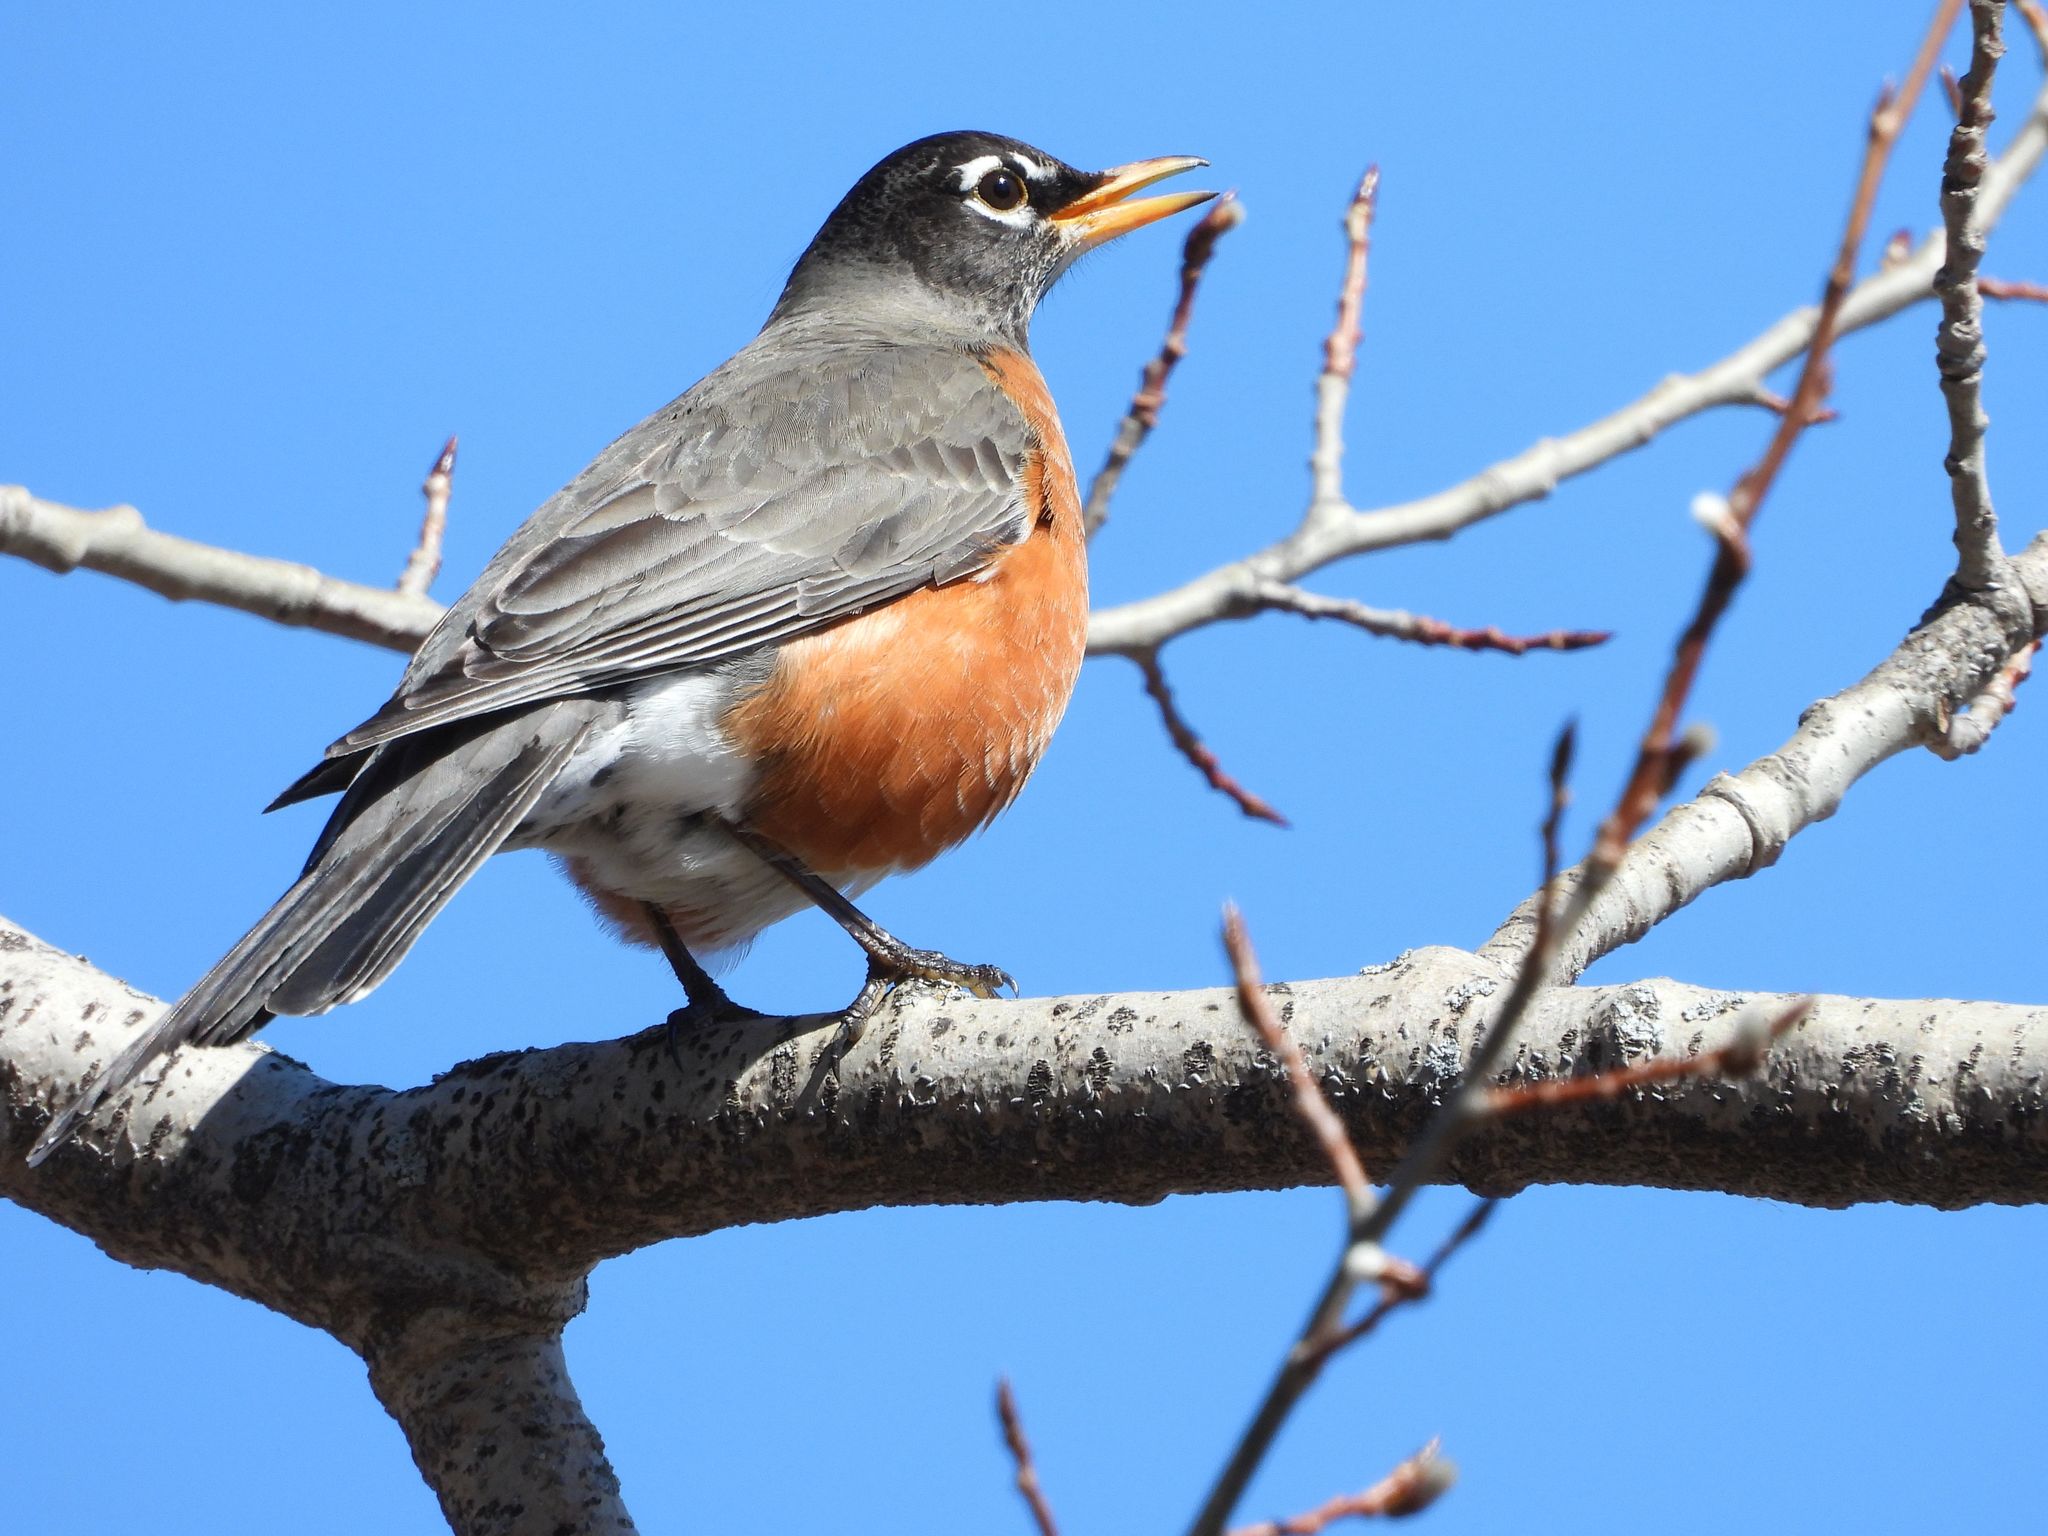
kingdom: Animalia
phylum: Chordata
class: Aves
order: Passeriformes
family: Turdidae
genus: Turdus
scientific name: Turdus migratorius
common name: American robin
